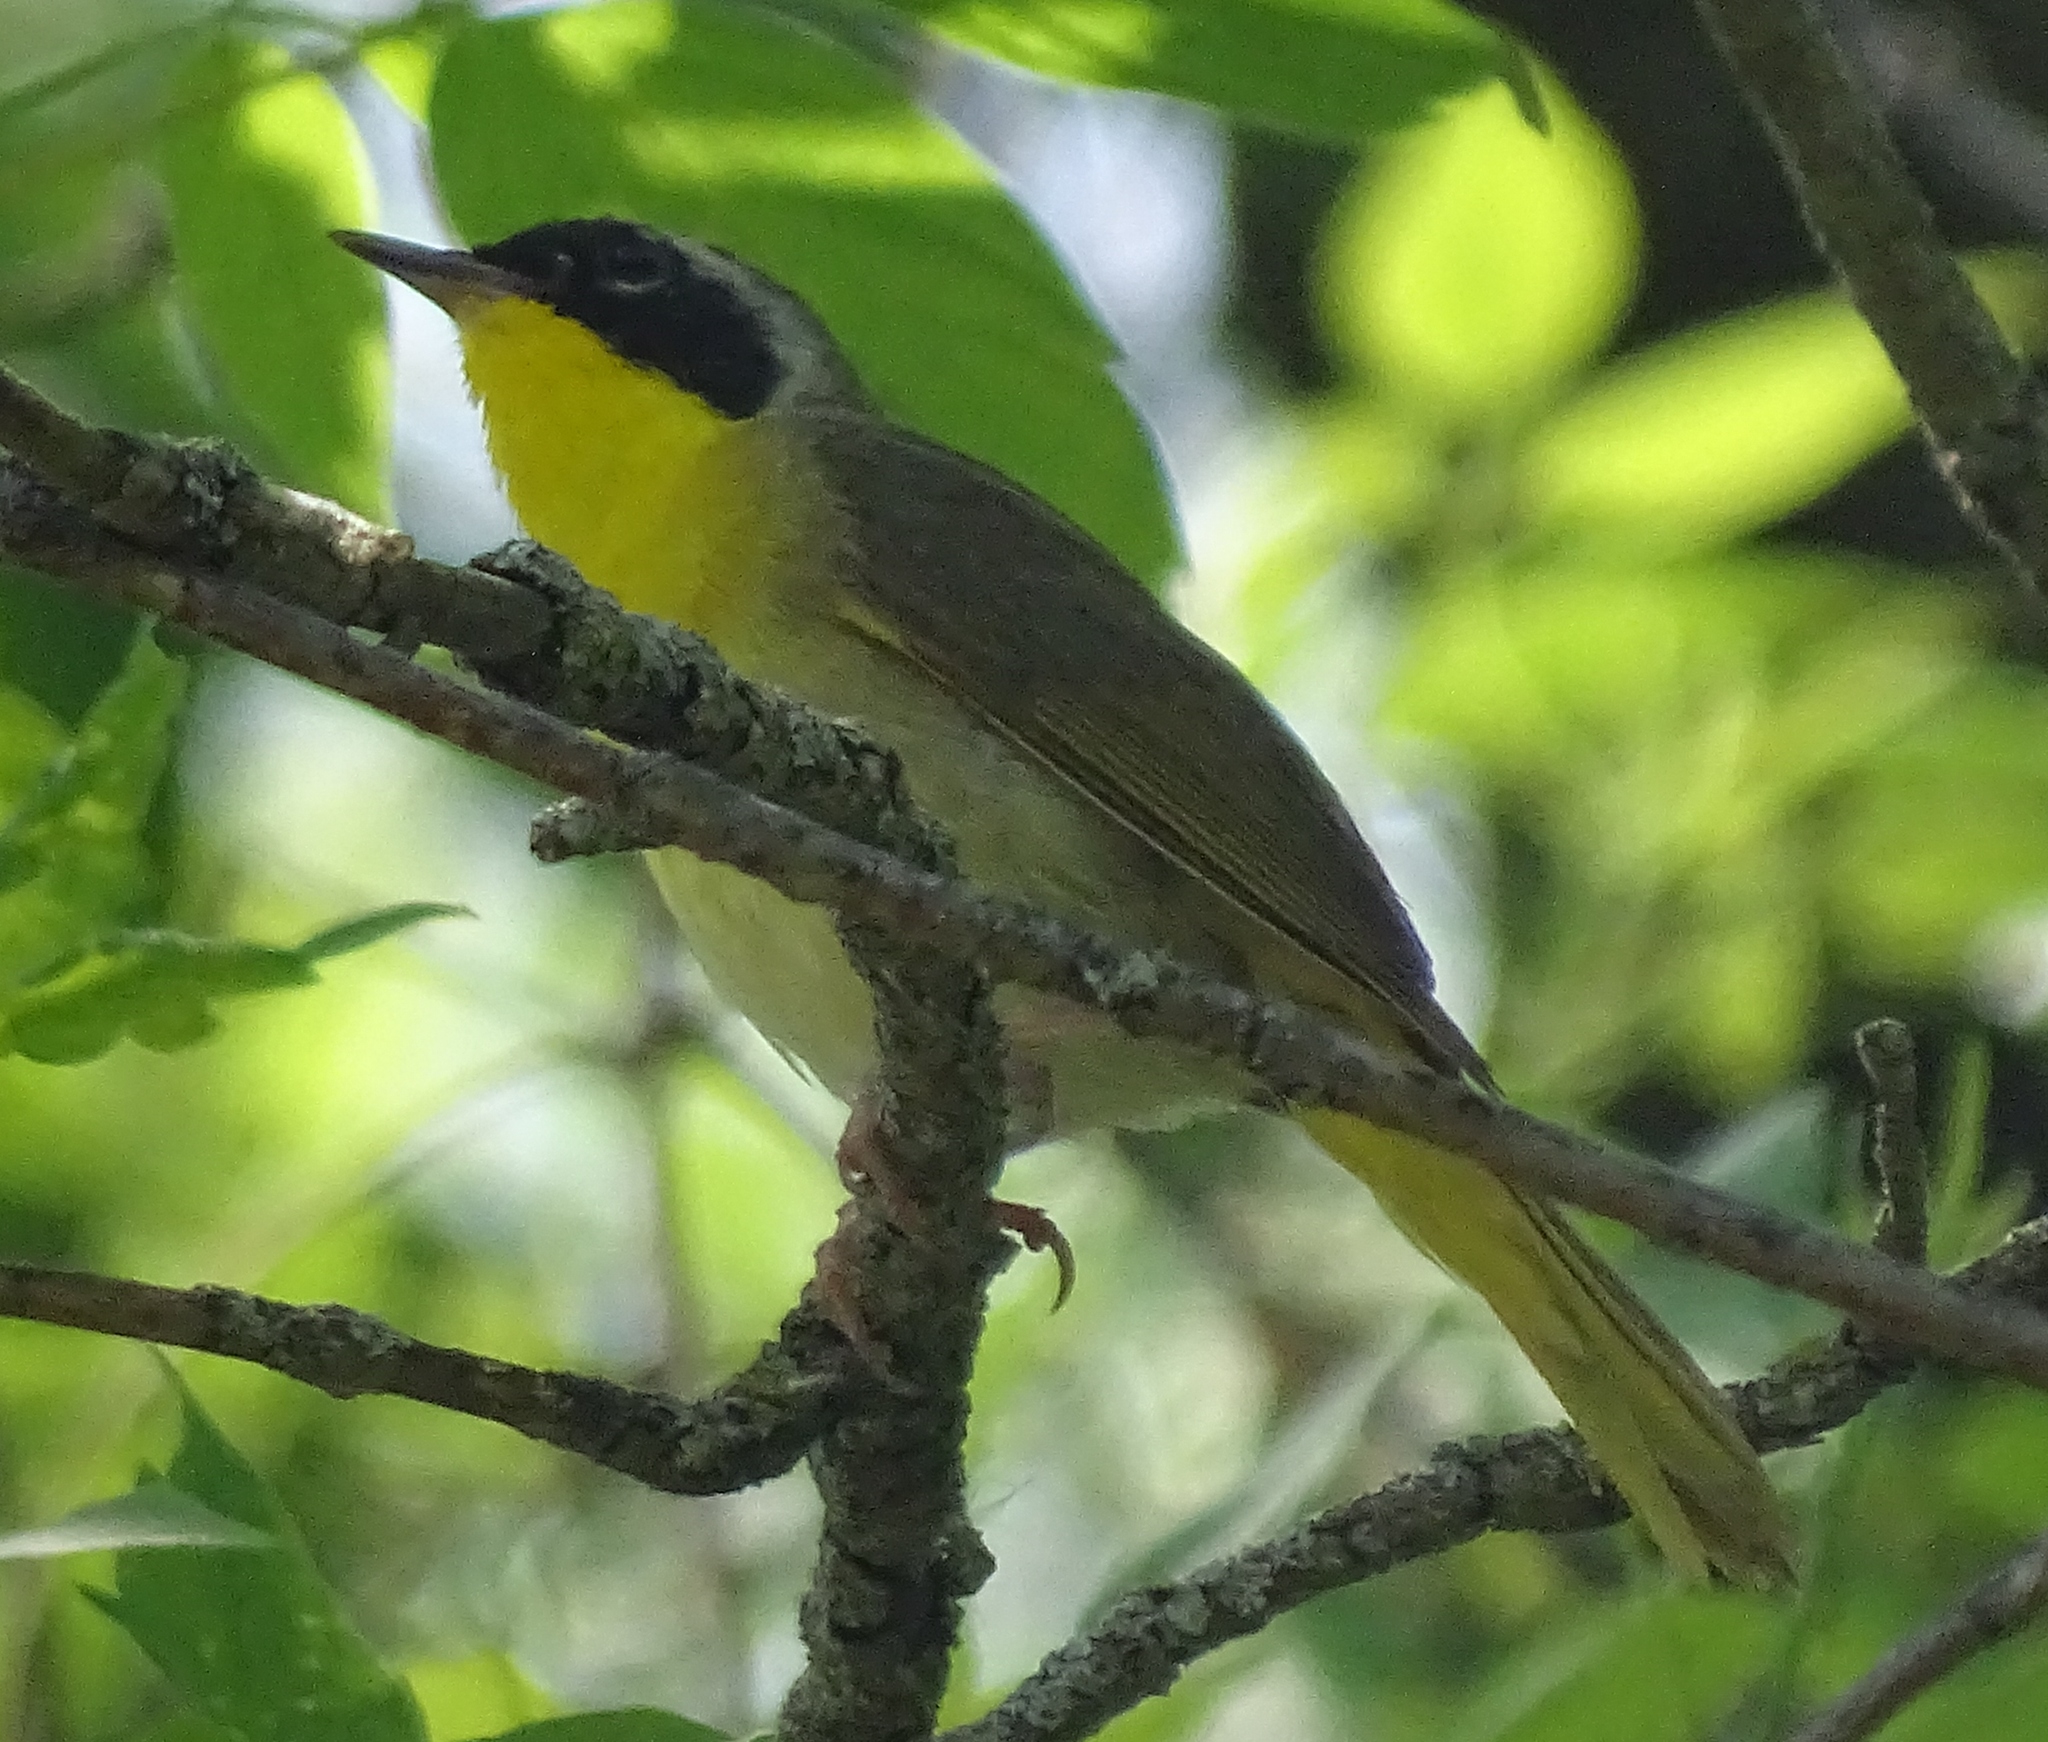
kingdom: Animalia
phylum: Chordata
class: Aves
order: Passeriformes
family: Parulidae
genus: Geothlypis
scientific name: Geothlypis trichas
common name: Common yellowthroat
